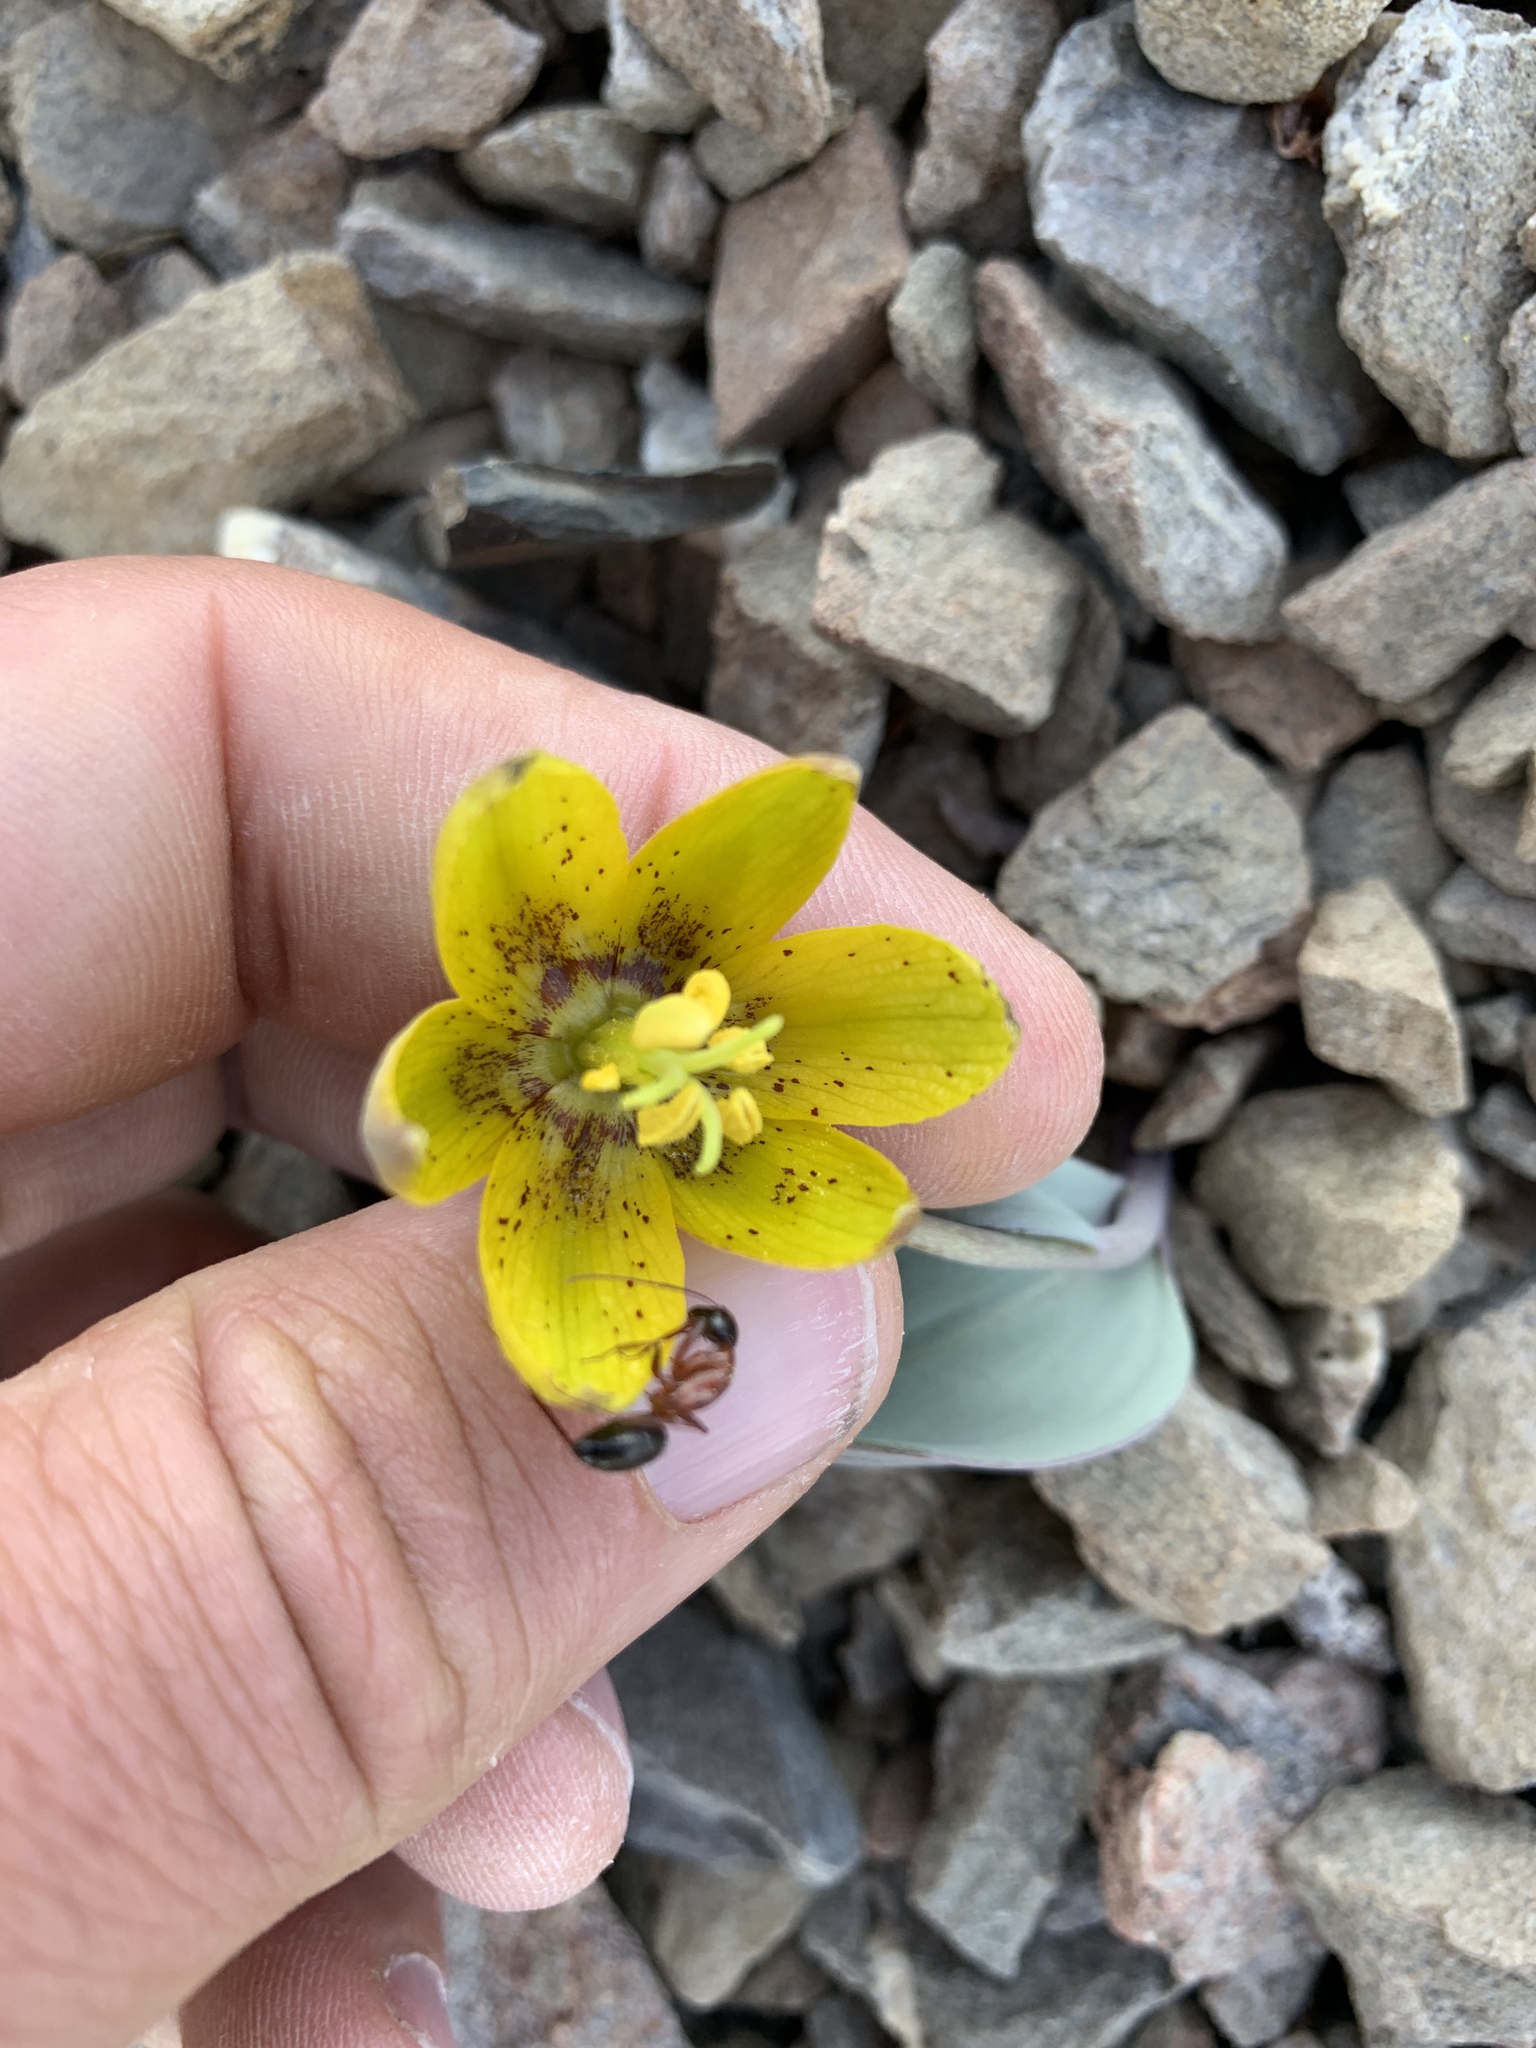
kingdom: Plantae
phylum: Tracheophyta
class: Liliopsida
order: Liliales
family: Liliaceae
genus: Fritillaria
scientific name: Fritillaria glauca
